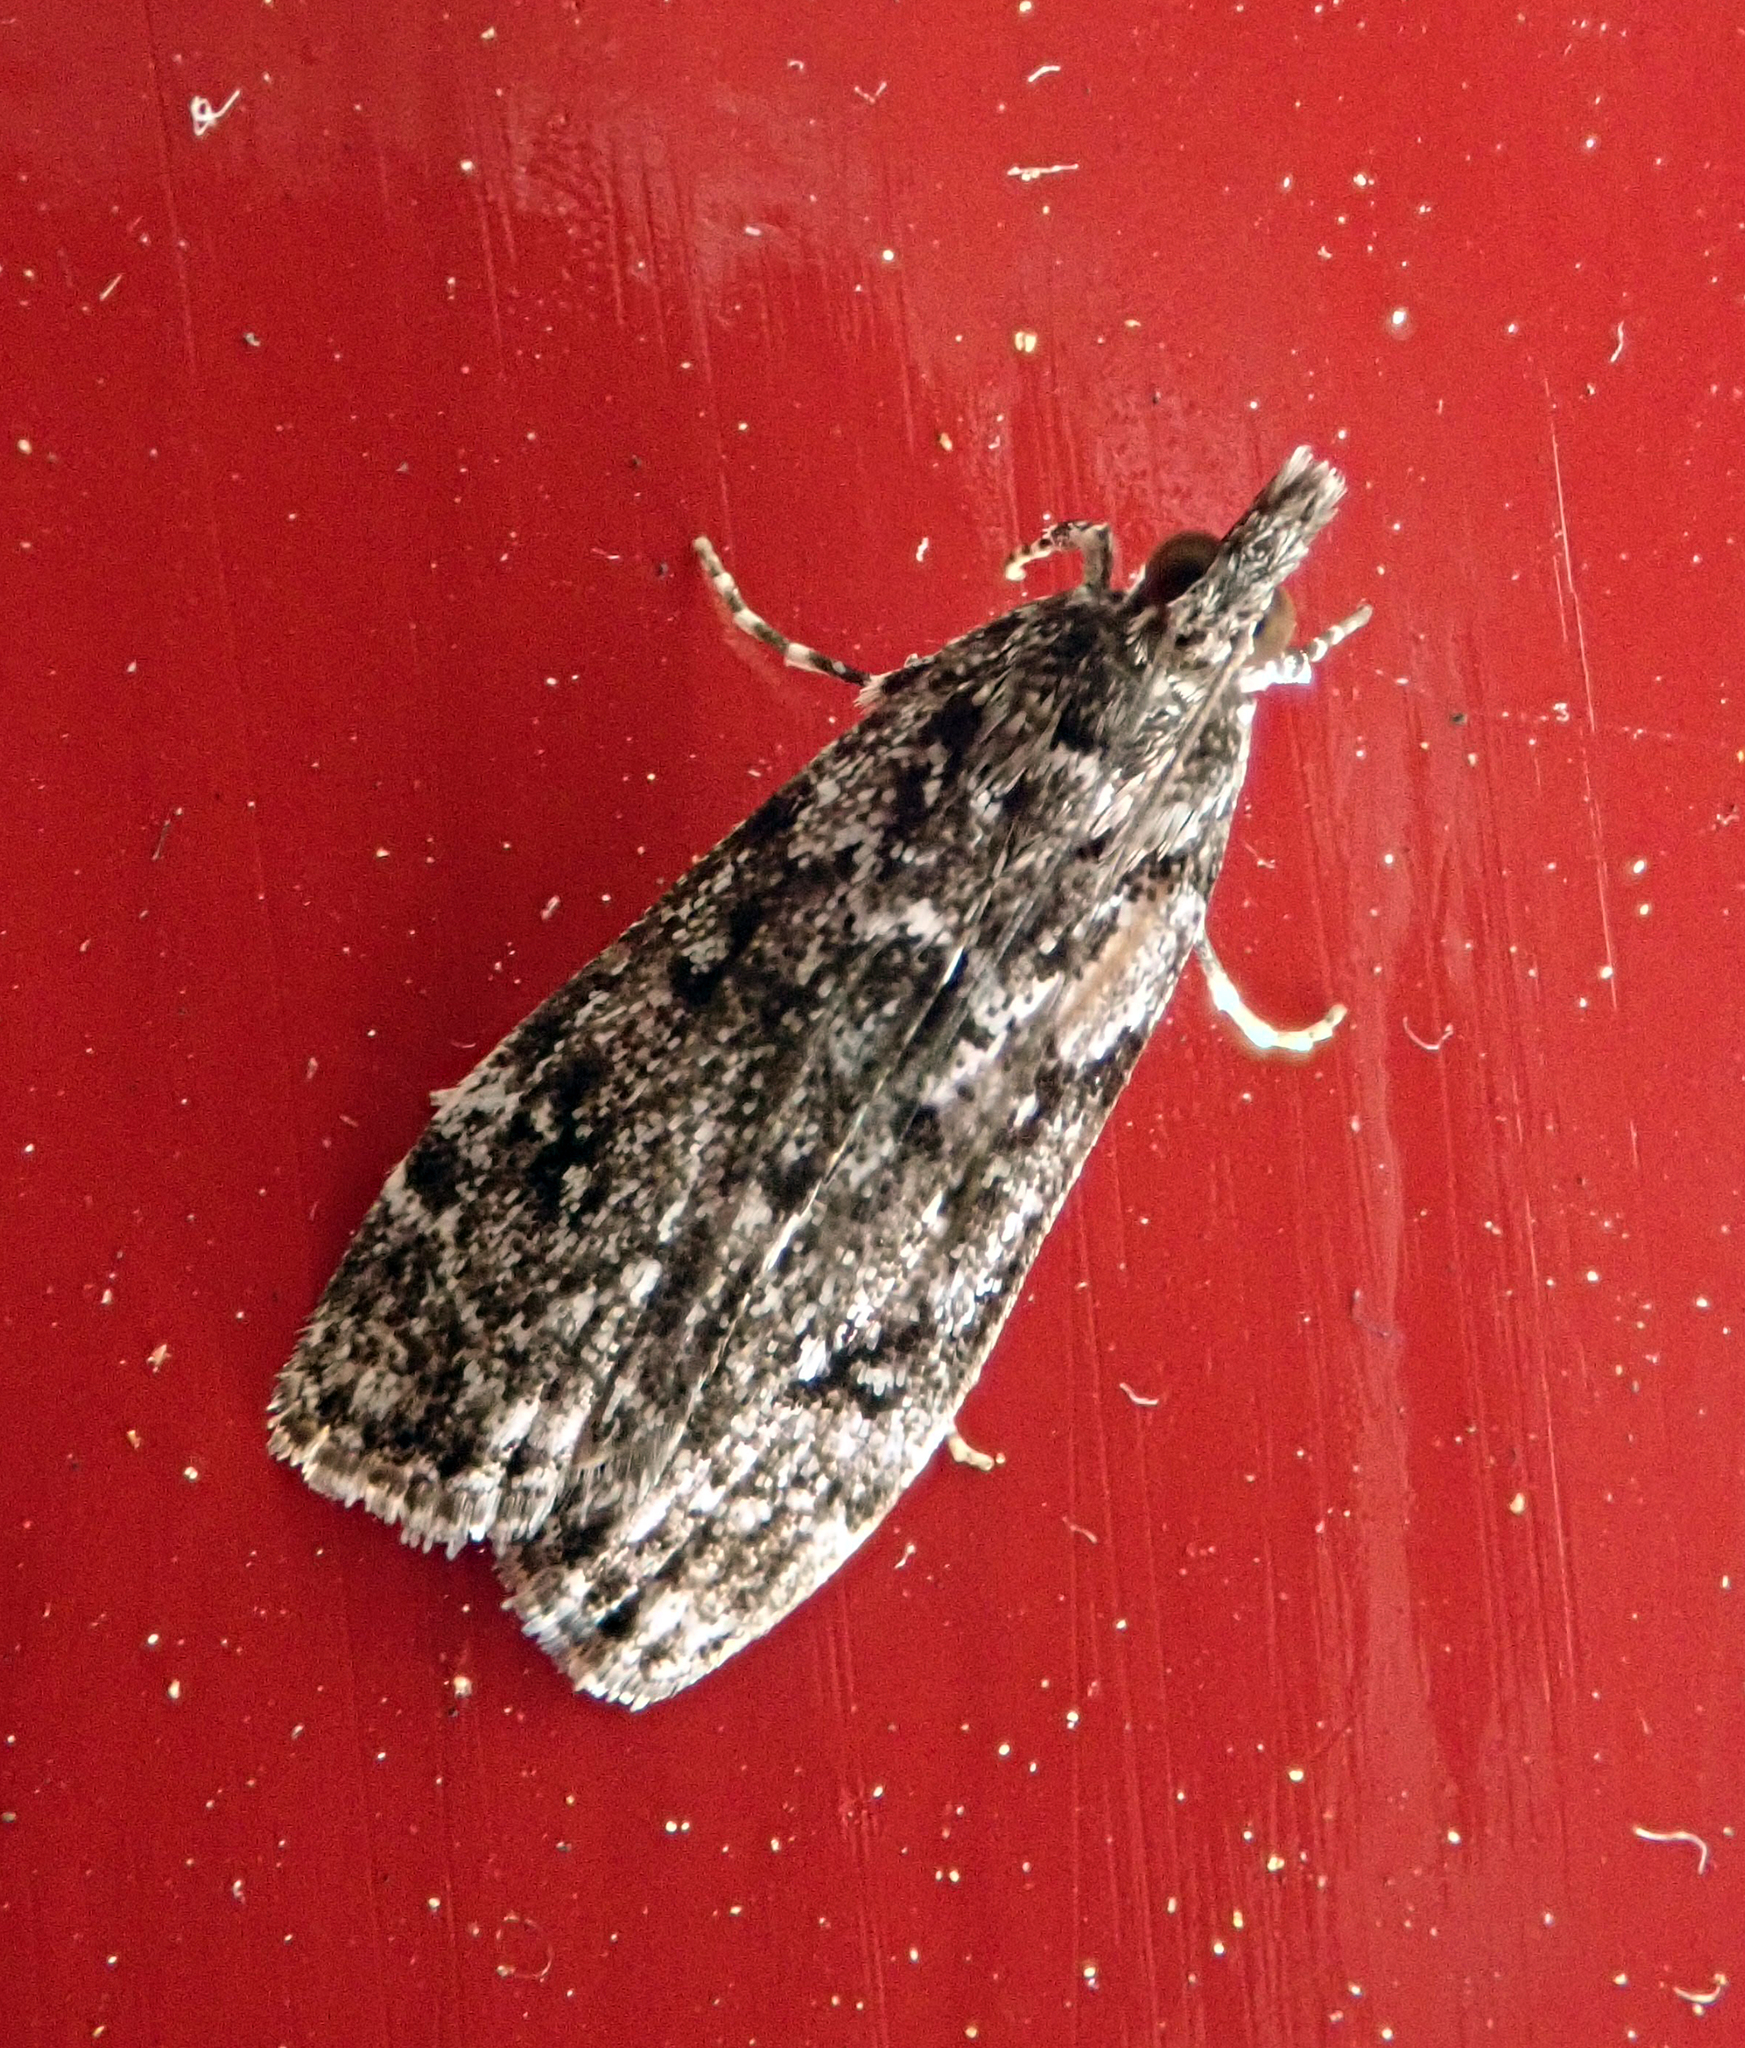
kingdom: Animalia
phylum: Arthropoda
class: Insecta
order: Lepidoptera
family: Crambidae
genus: Eudonia
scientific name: Eudonia philerga
